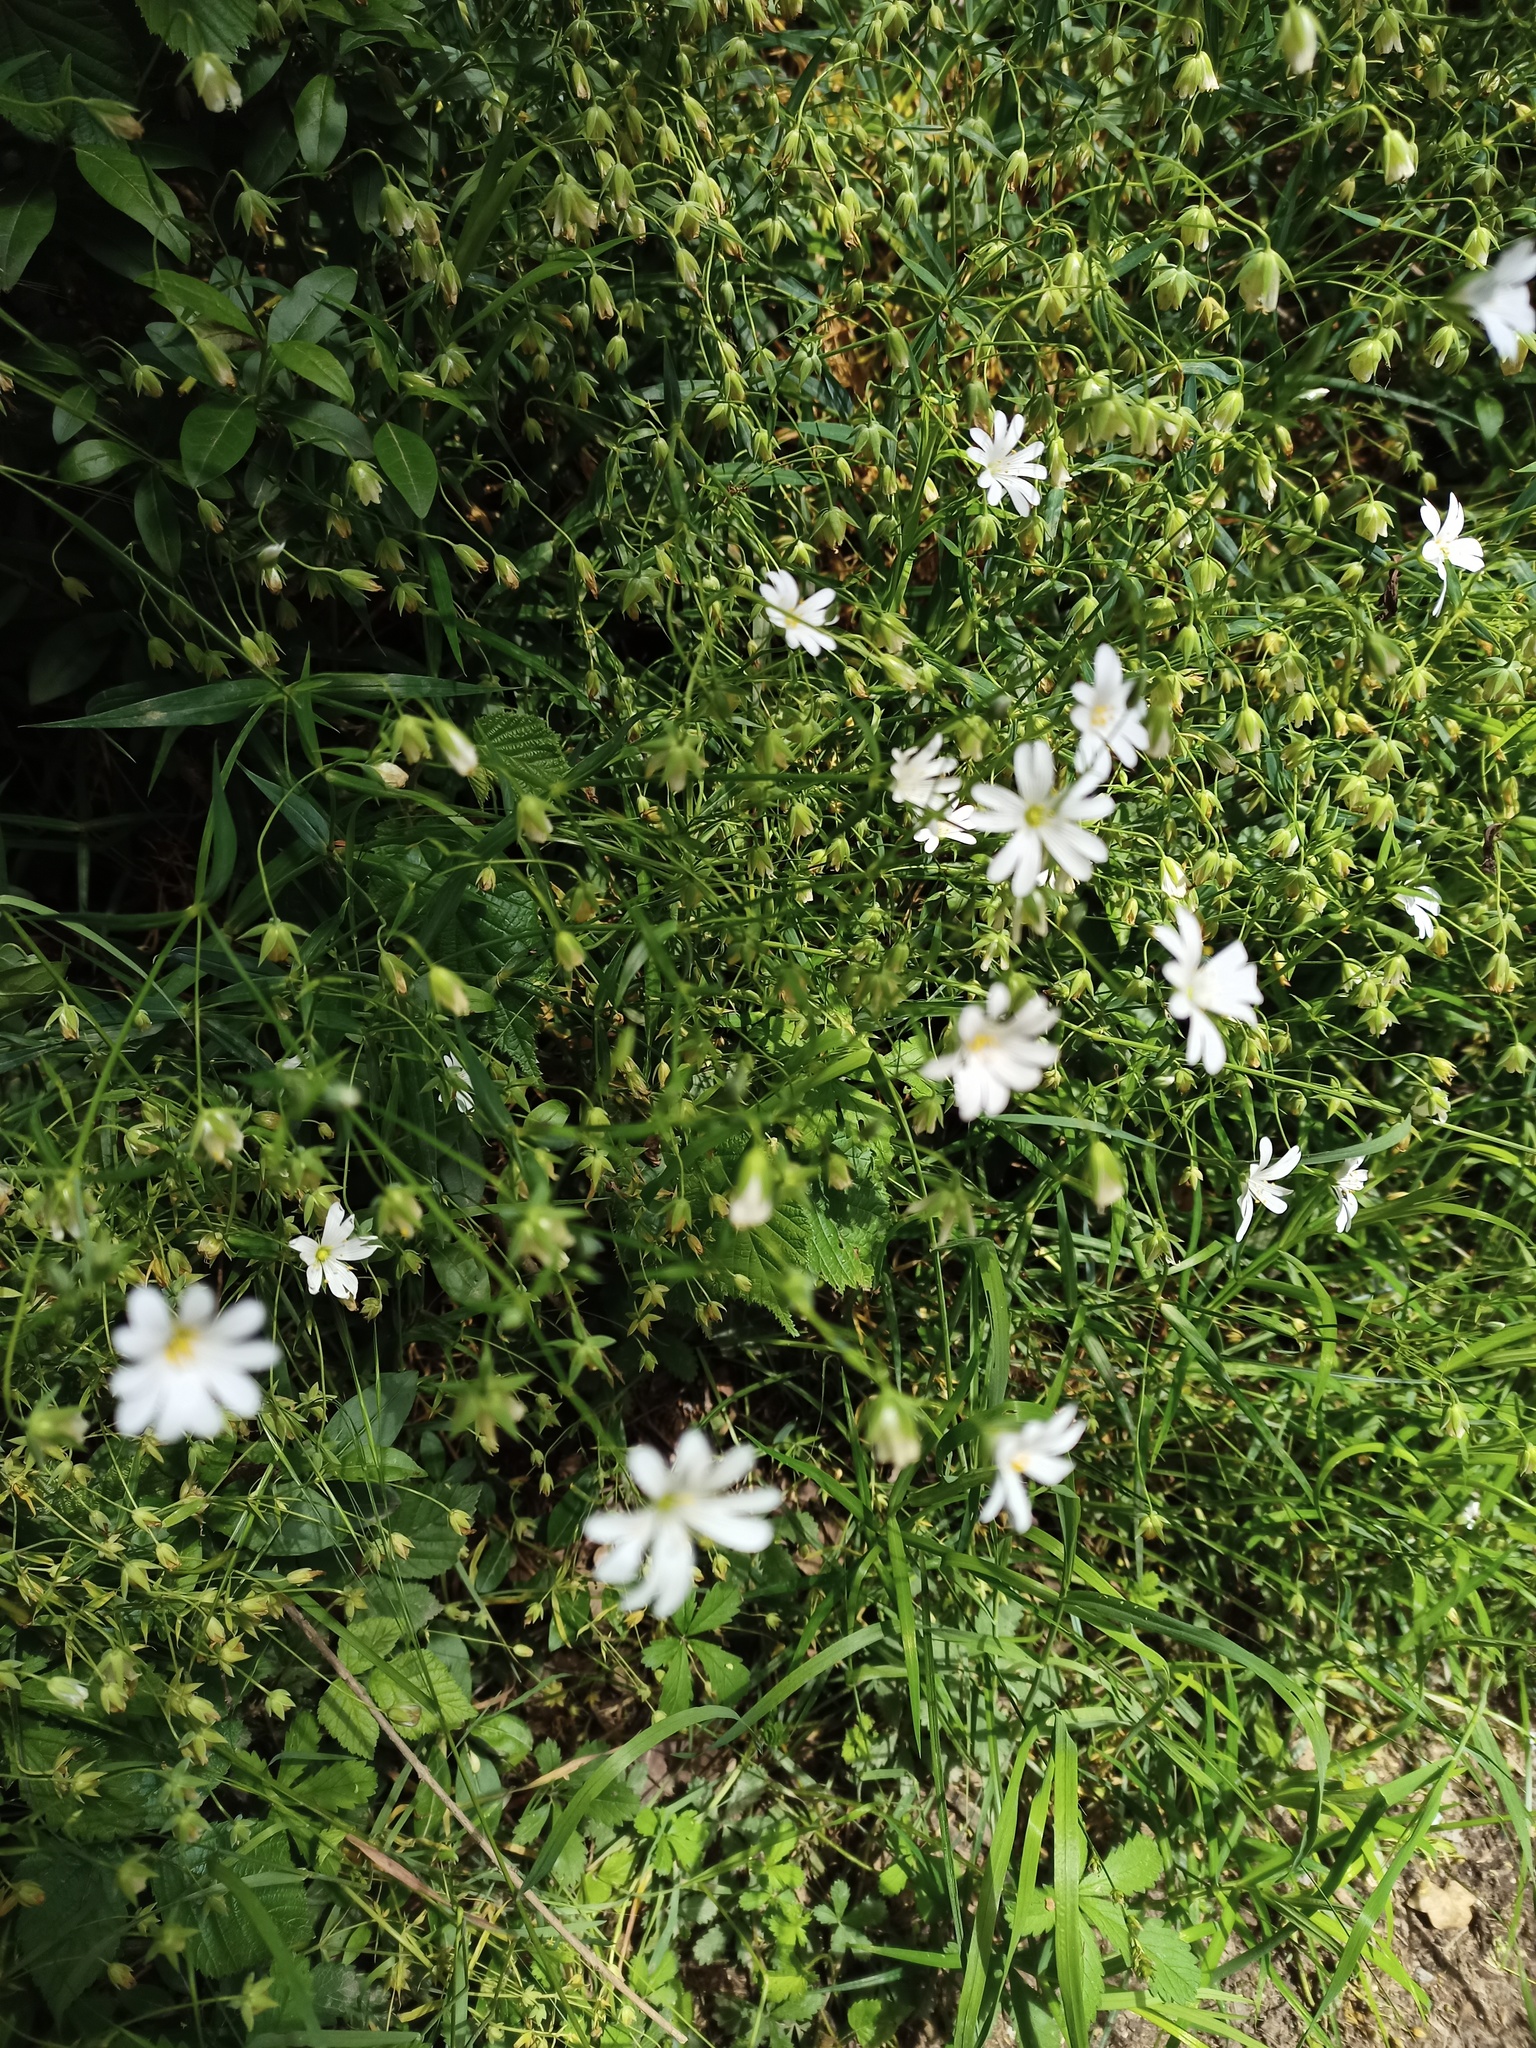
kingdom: Plantae
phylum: Tracheophyta
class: Magnoliopsida
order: Caryophyllales
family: Caryophyllaceae
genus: Rabelera
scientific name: Rabelera holostea
